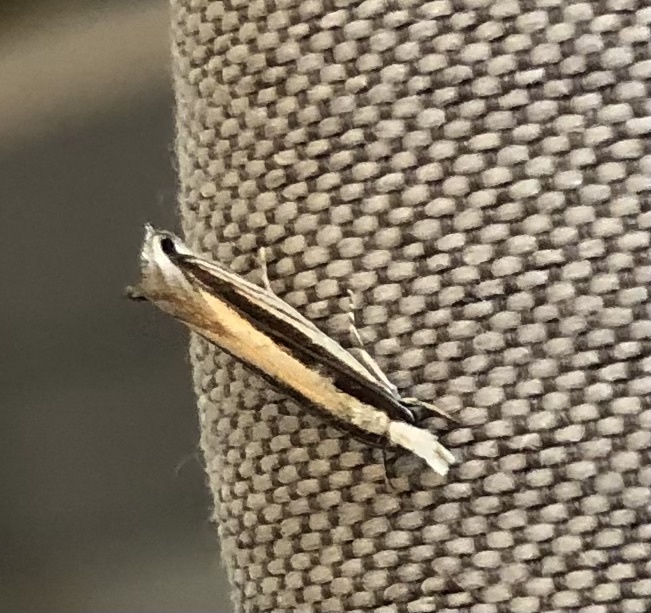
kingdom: Animalia
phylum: Arthropoda
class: Insecta
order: Lepidoptera
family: Tineidae
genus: Erechthias
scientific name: Erechthias stilbella
